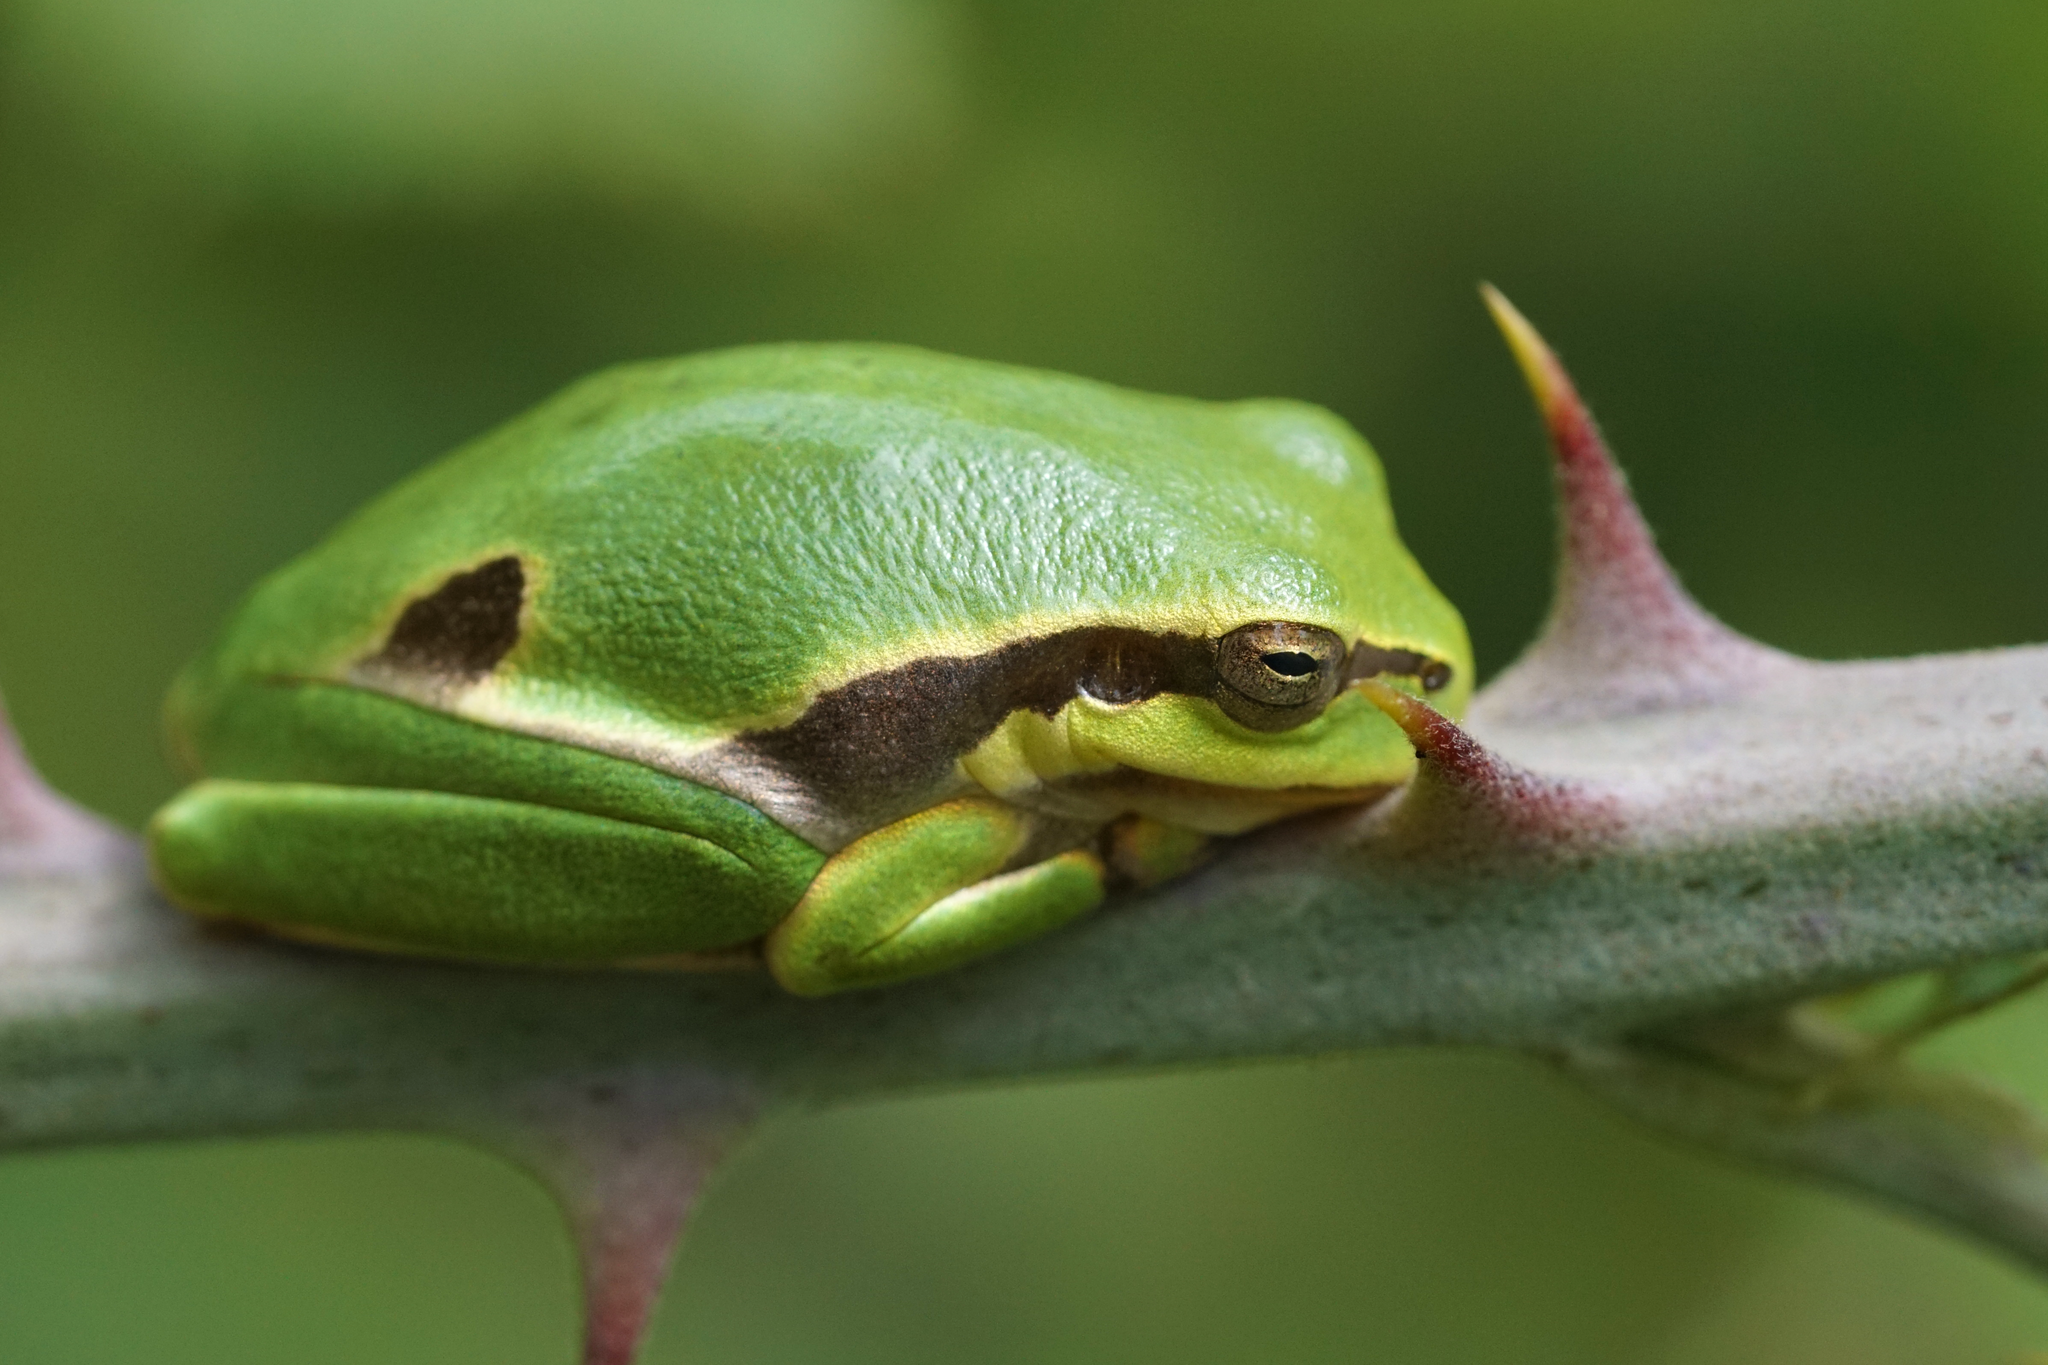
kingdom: Animalia
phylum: Chordata
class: Amphibia
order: Anura
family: Hylidae
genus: Hyla
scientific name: Hyla arborea
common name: Common tree frog
